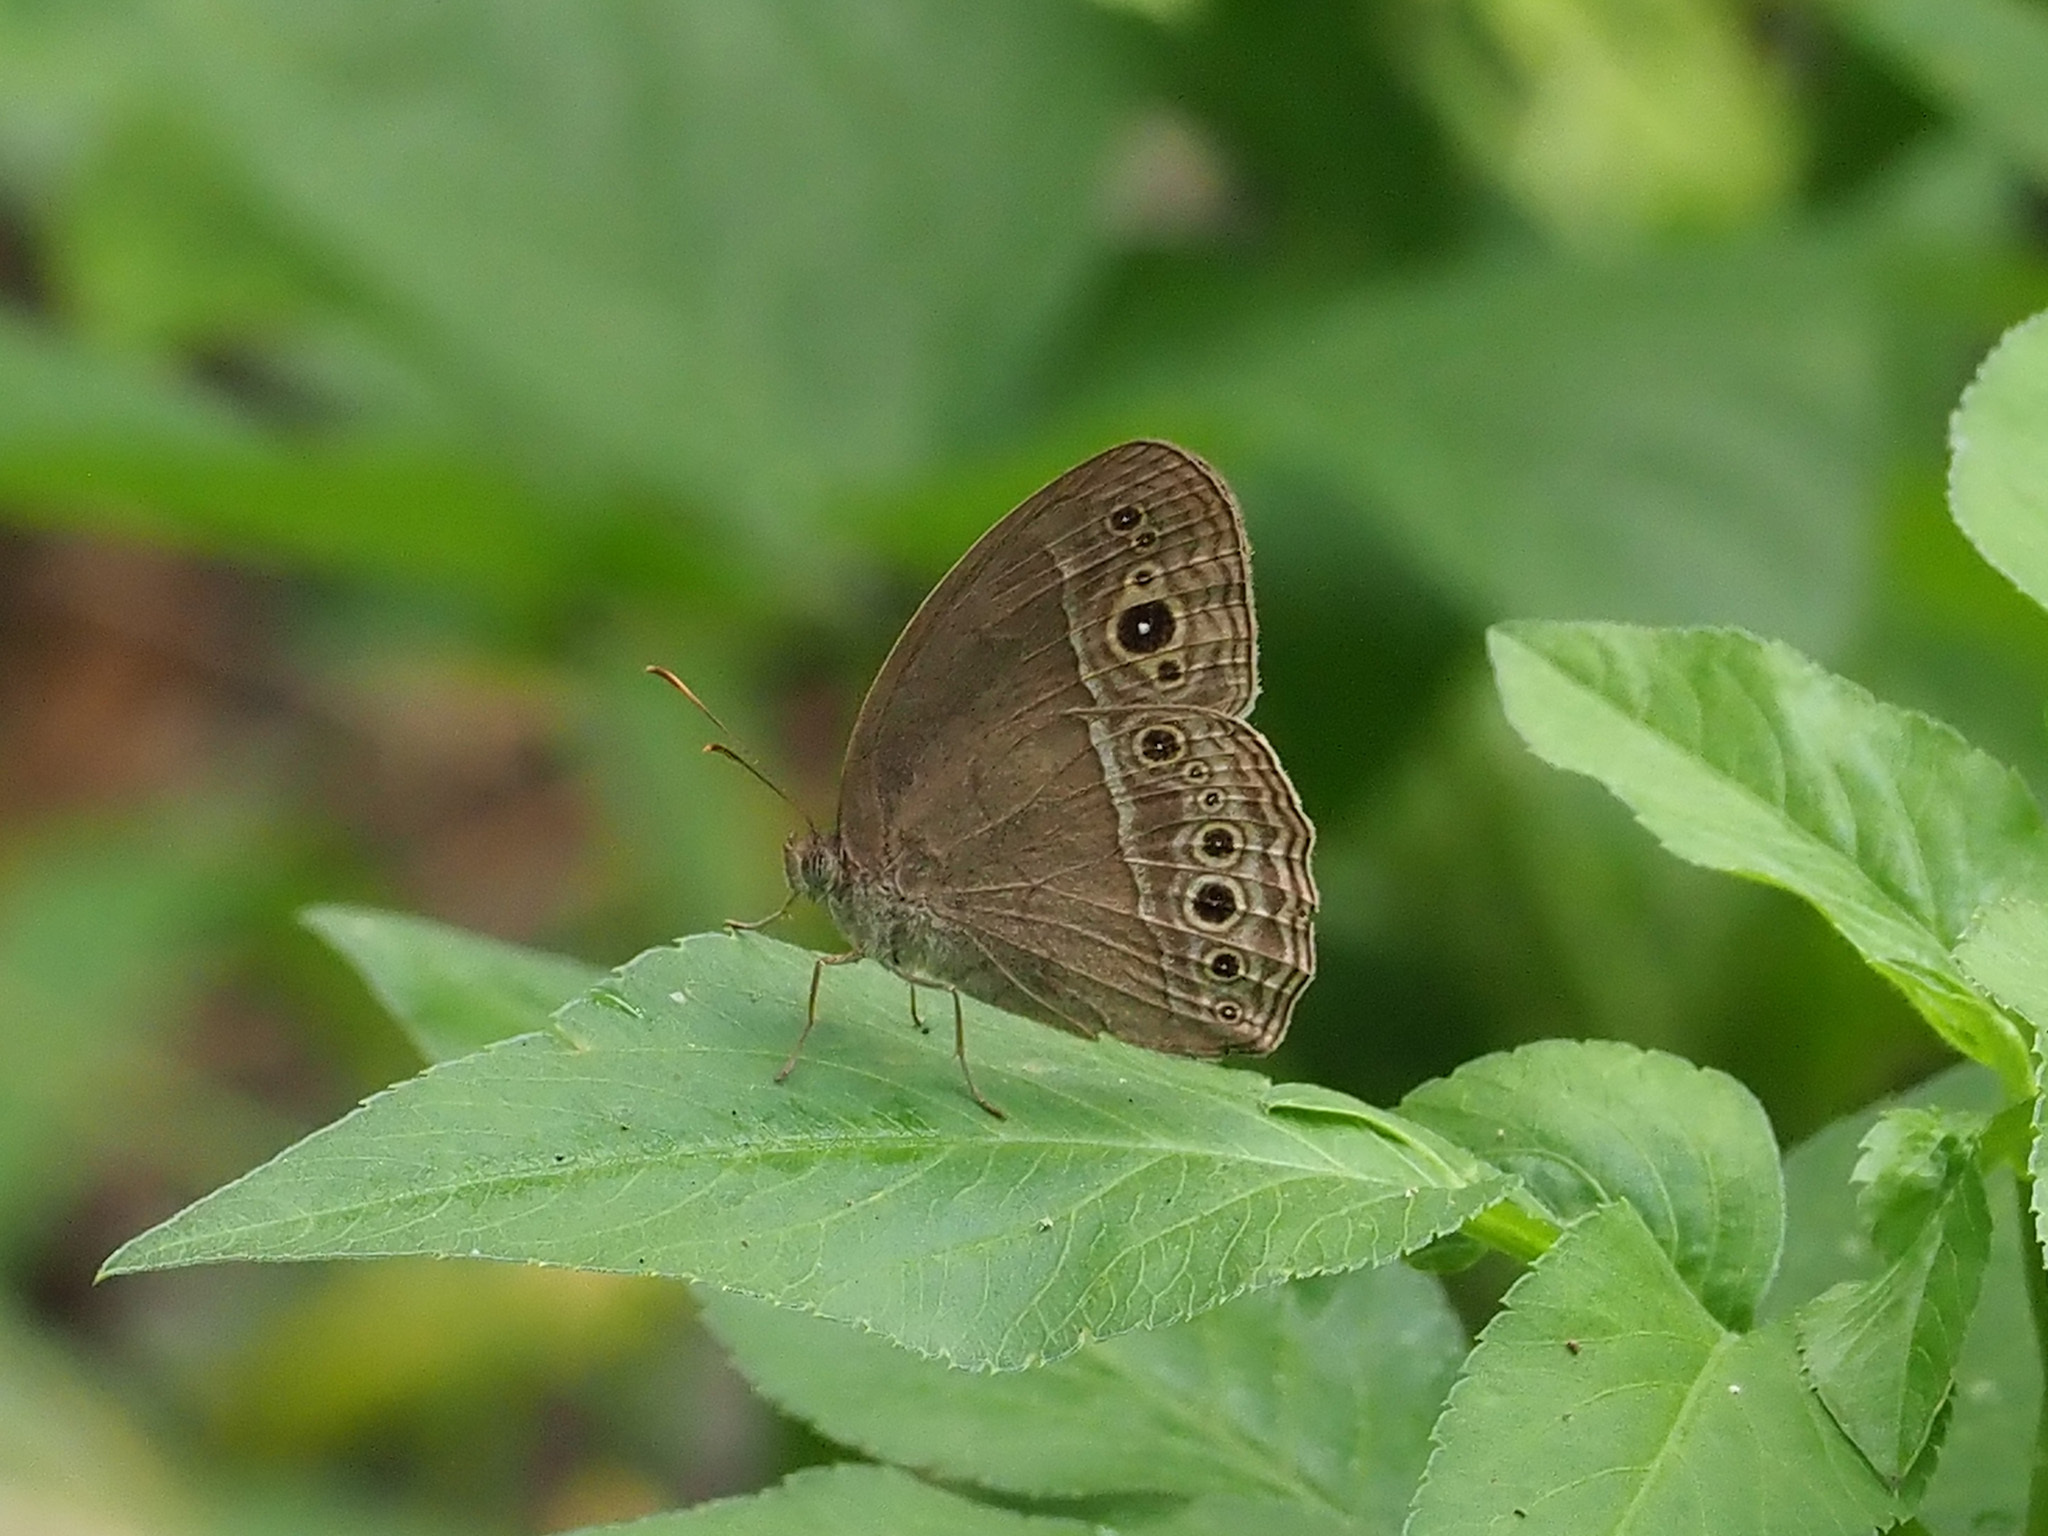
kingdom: Animalia
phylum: Arthropoda
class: Insecta
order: Lepidoptera
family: Nymphalidae
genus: Mycalesis
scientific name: Mycalesis perseoides
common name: Burmese bushbrown
